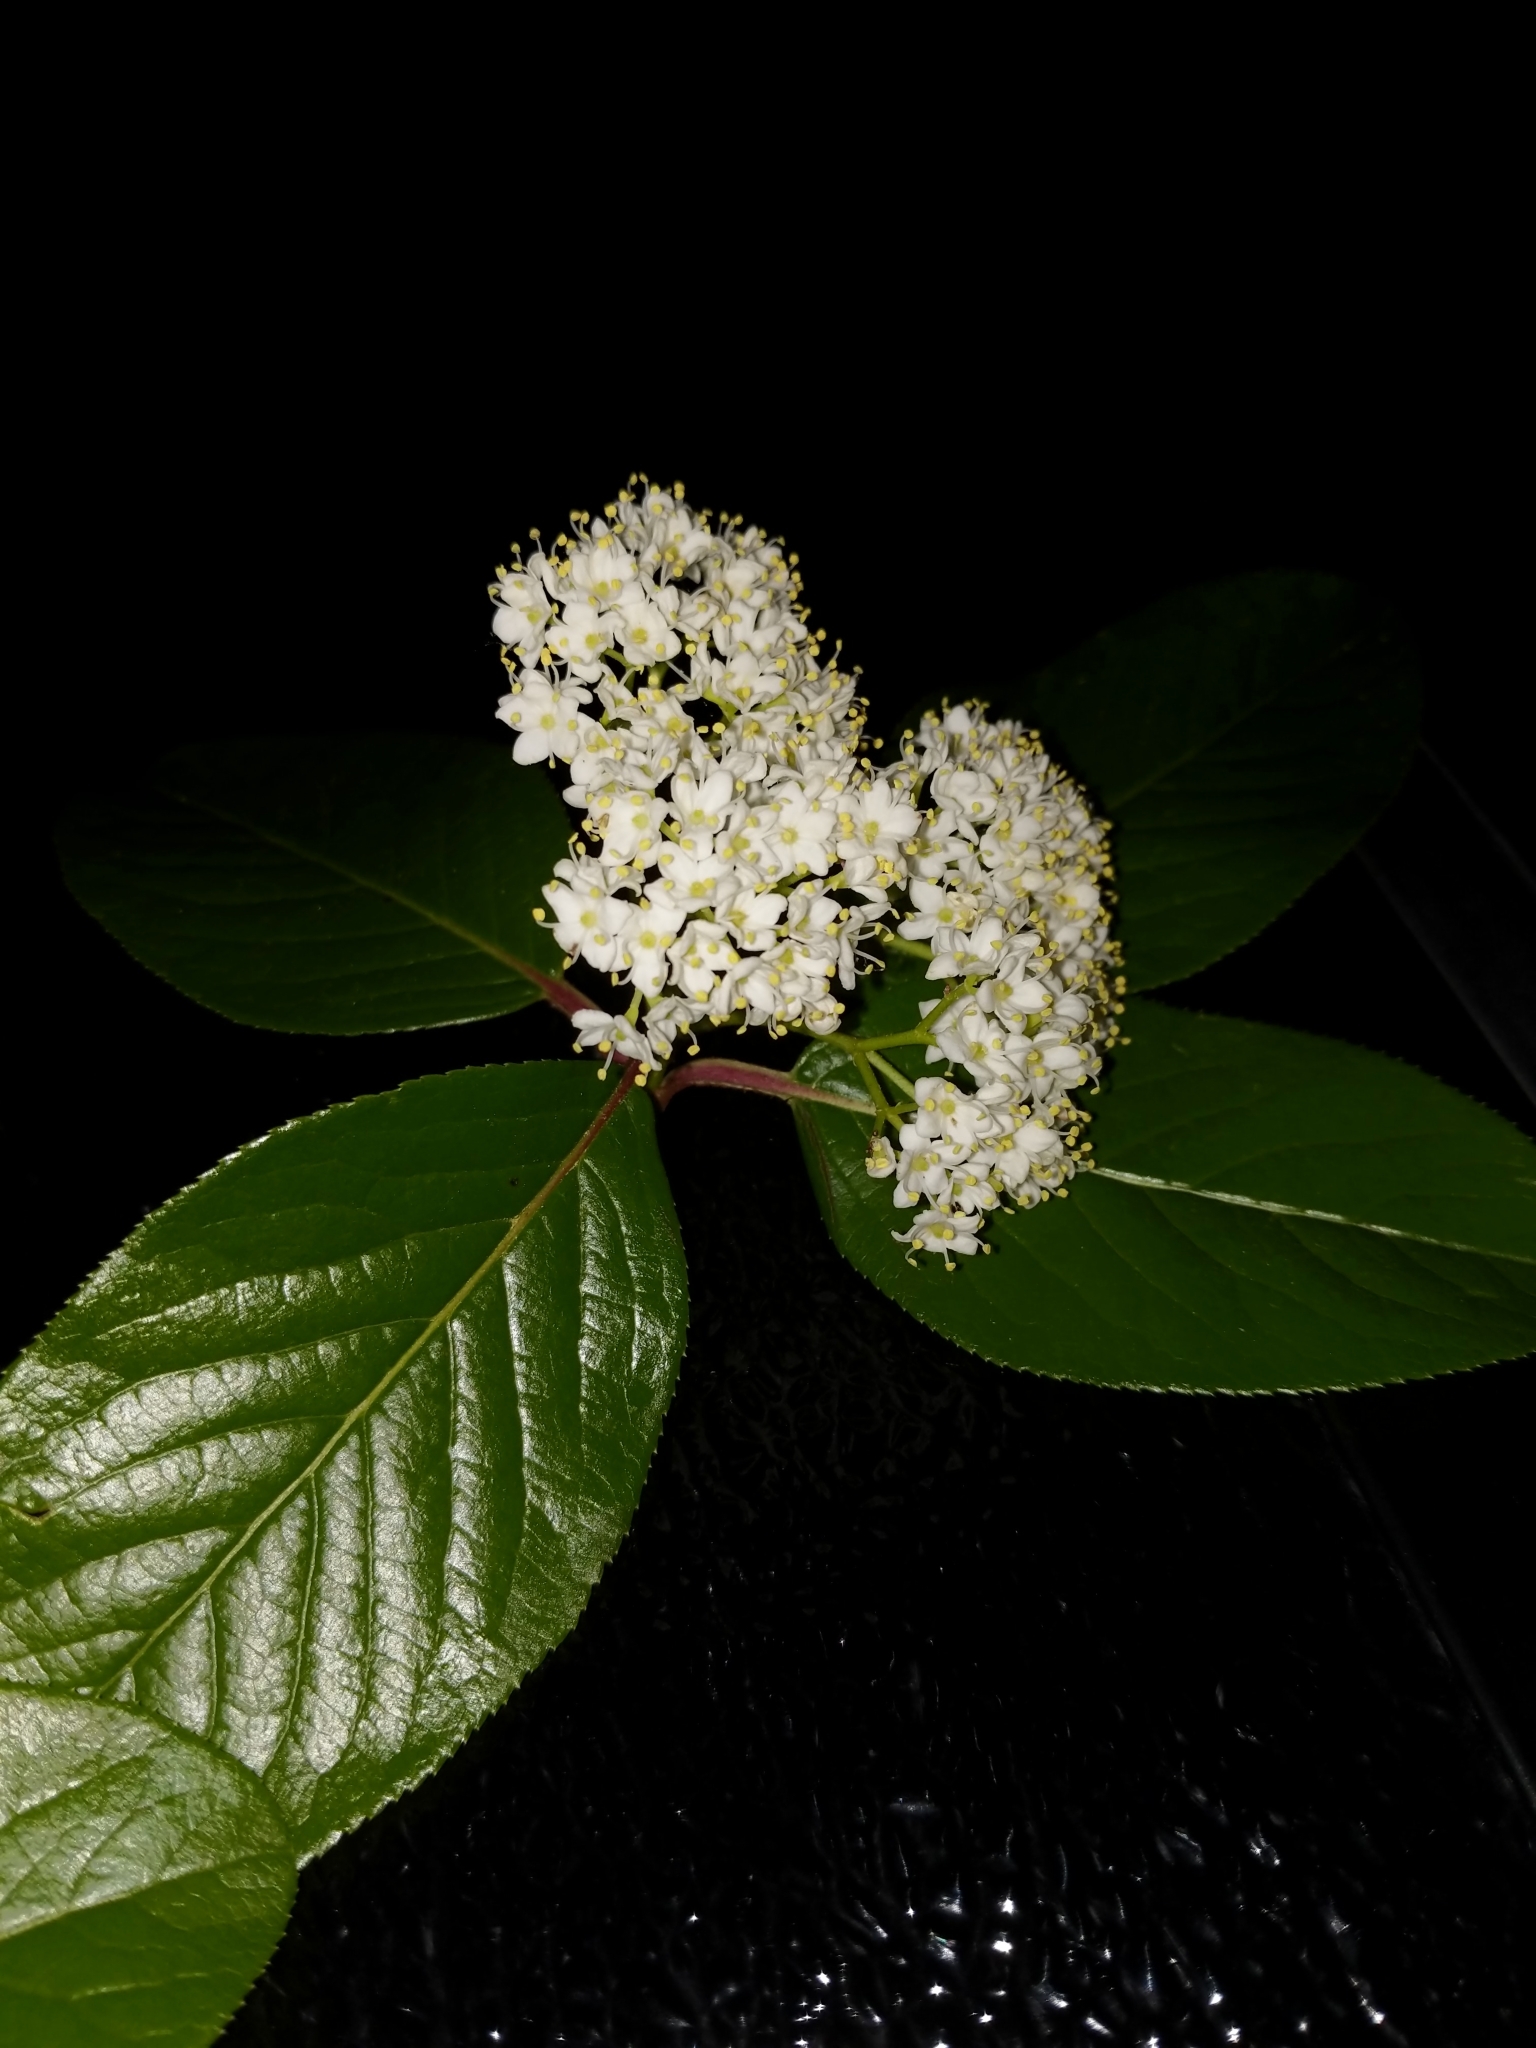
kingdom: Plantae
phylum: Tracheophyta
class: Magnoliopsida
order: Dipsacales
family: Viburnaceae
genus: Viburnum
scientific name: Viburnum rufidulum
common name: Blue haw
